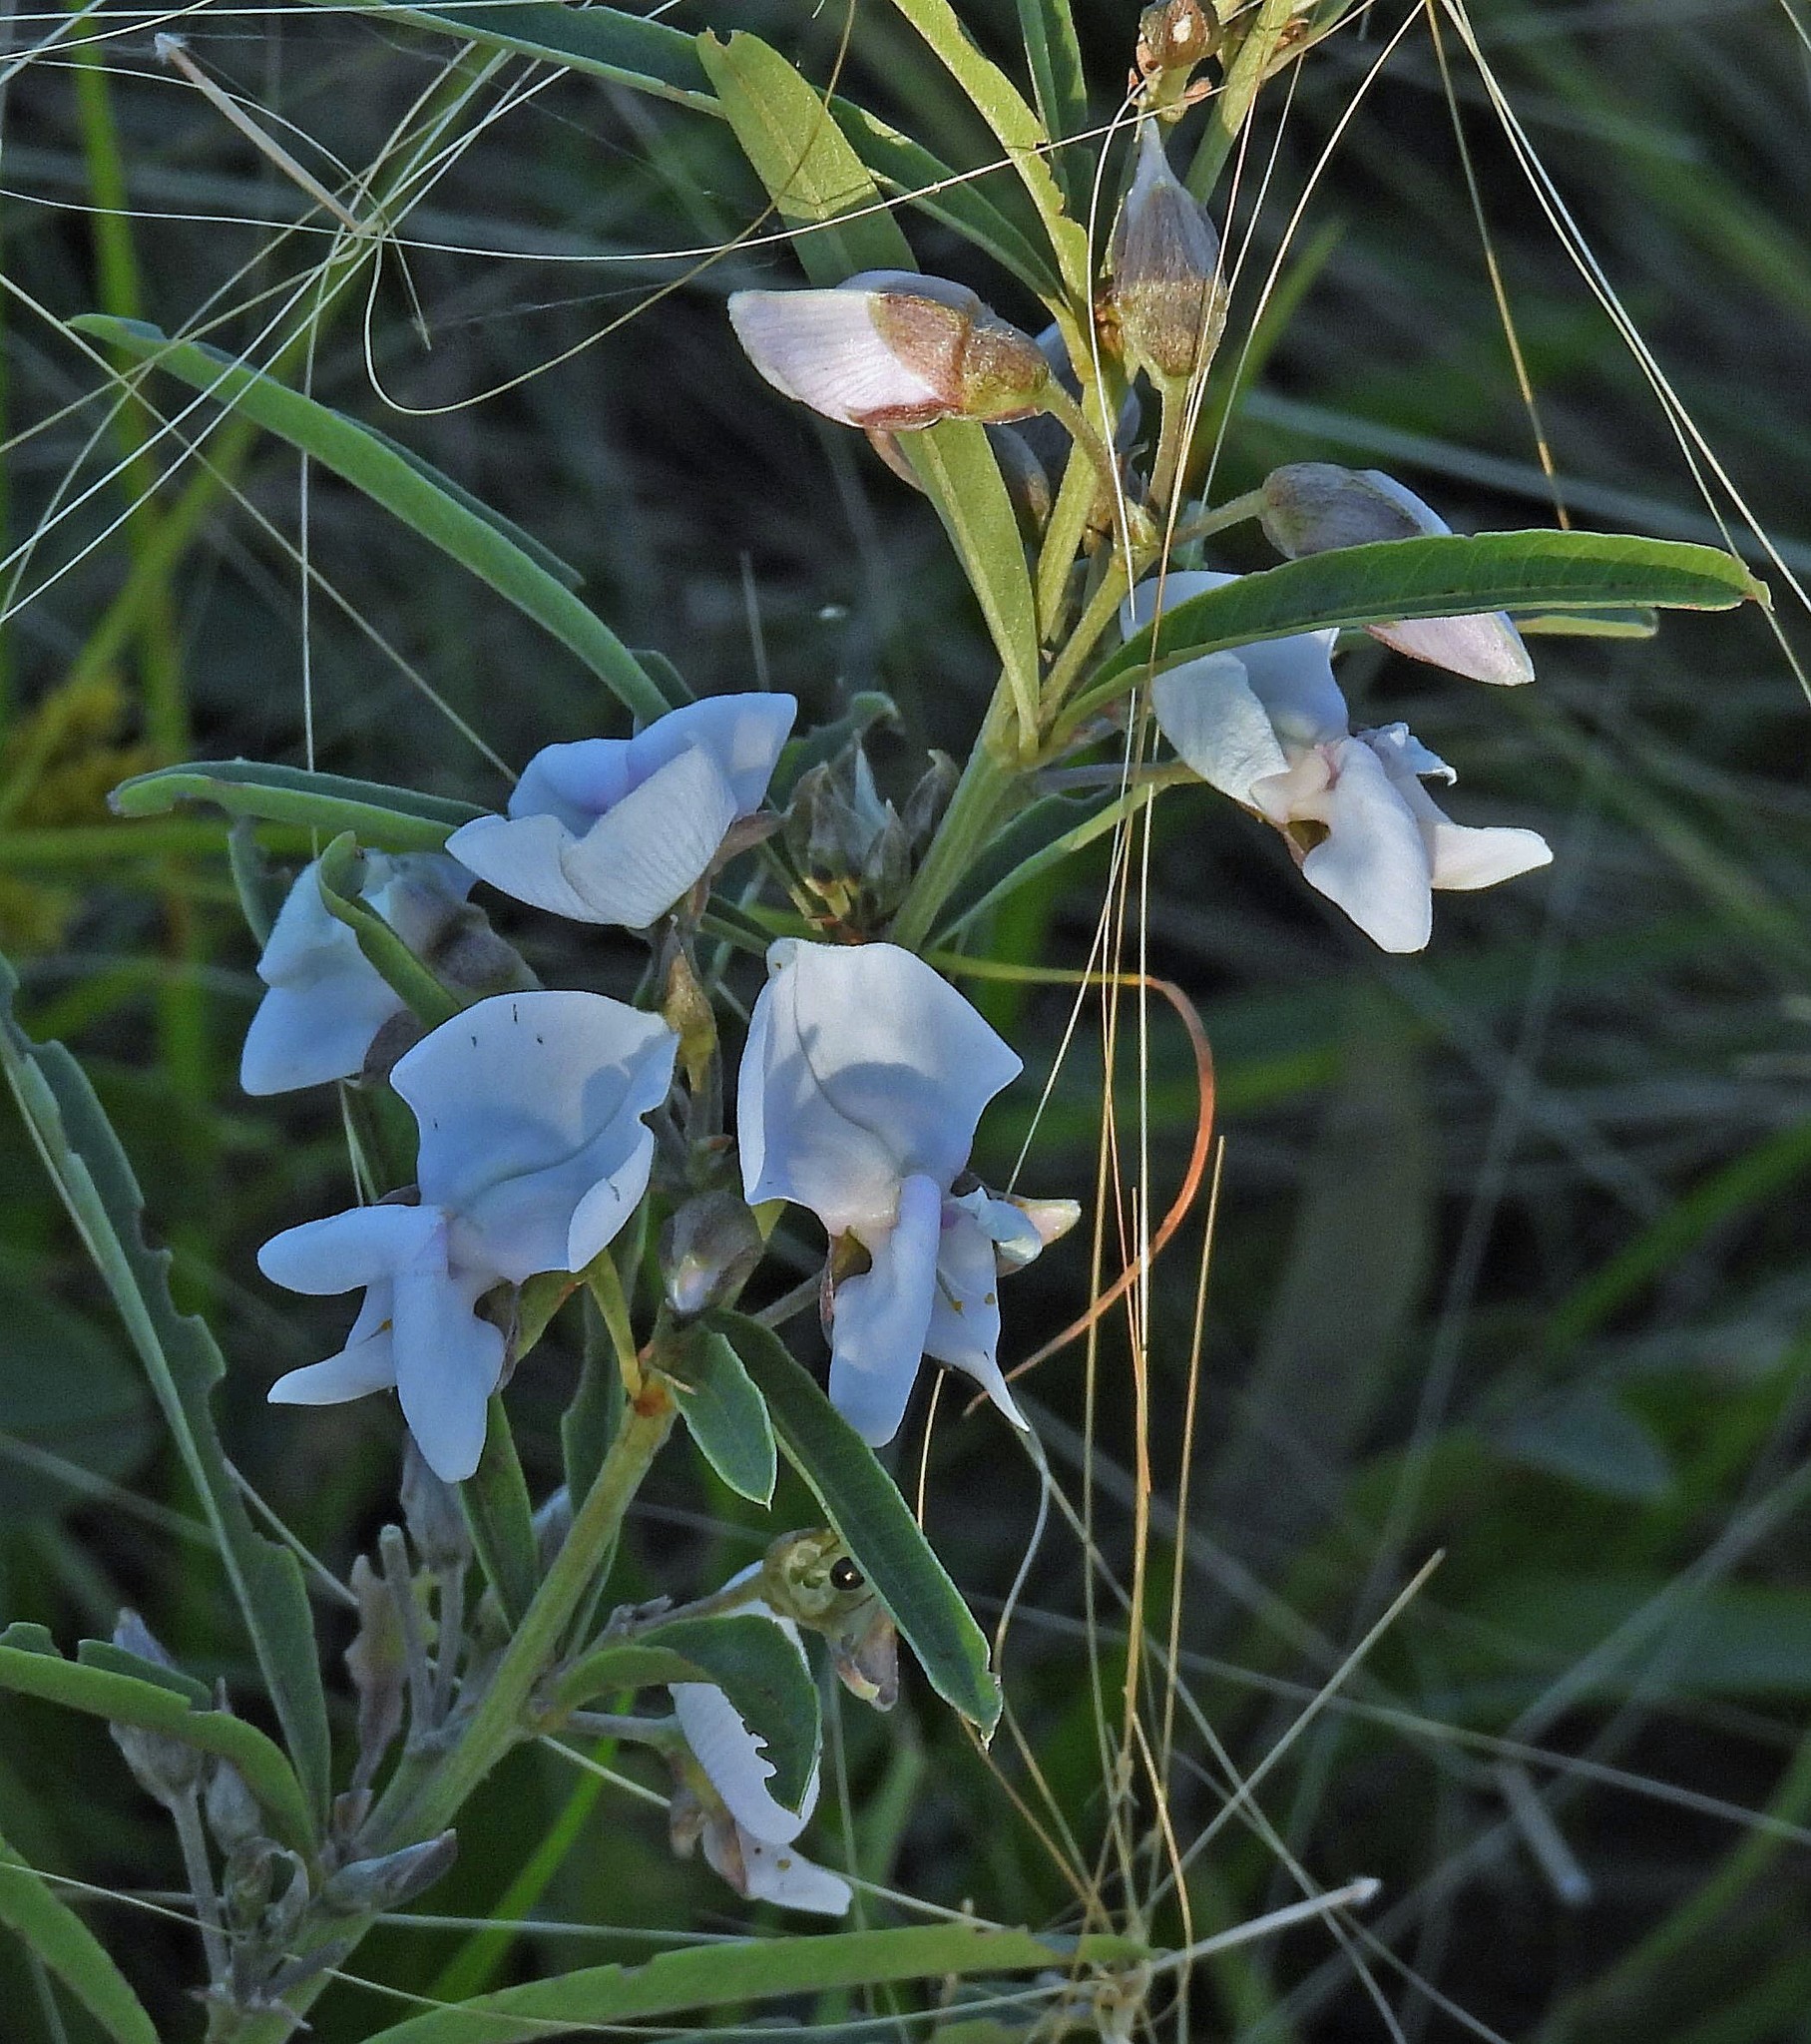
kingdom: Plantae
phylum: Tracheophyta
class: Magnoliopsida
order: Fabales
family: Fabaceae
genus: Collaea
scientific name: Collaea stenophylla
